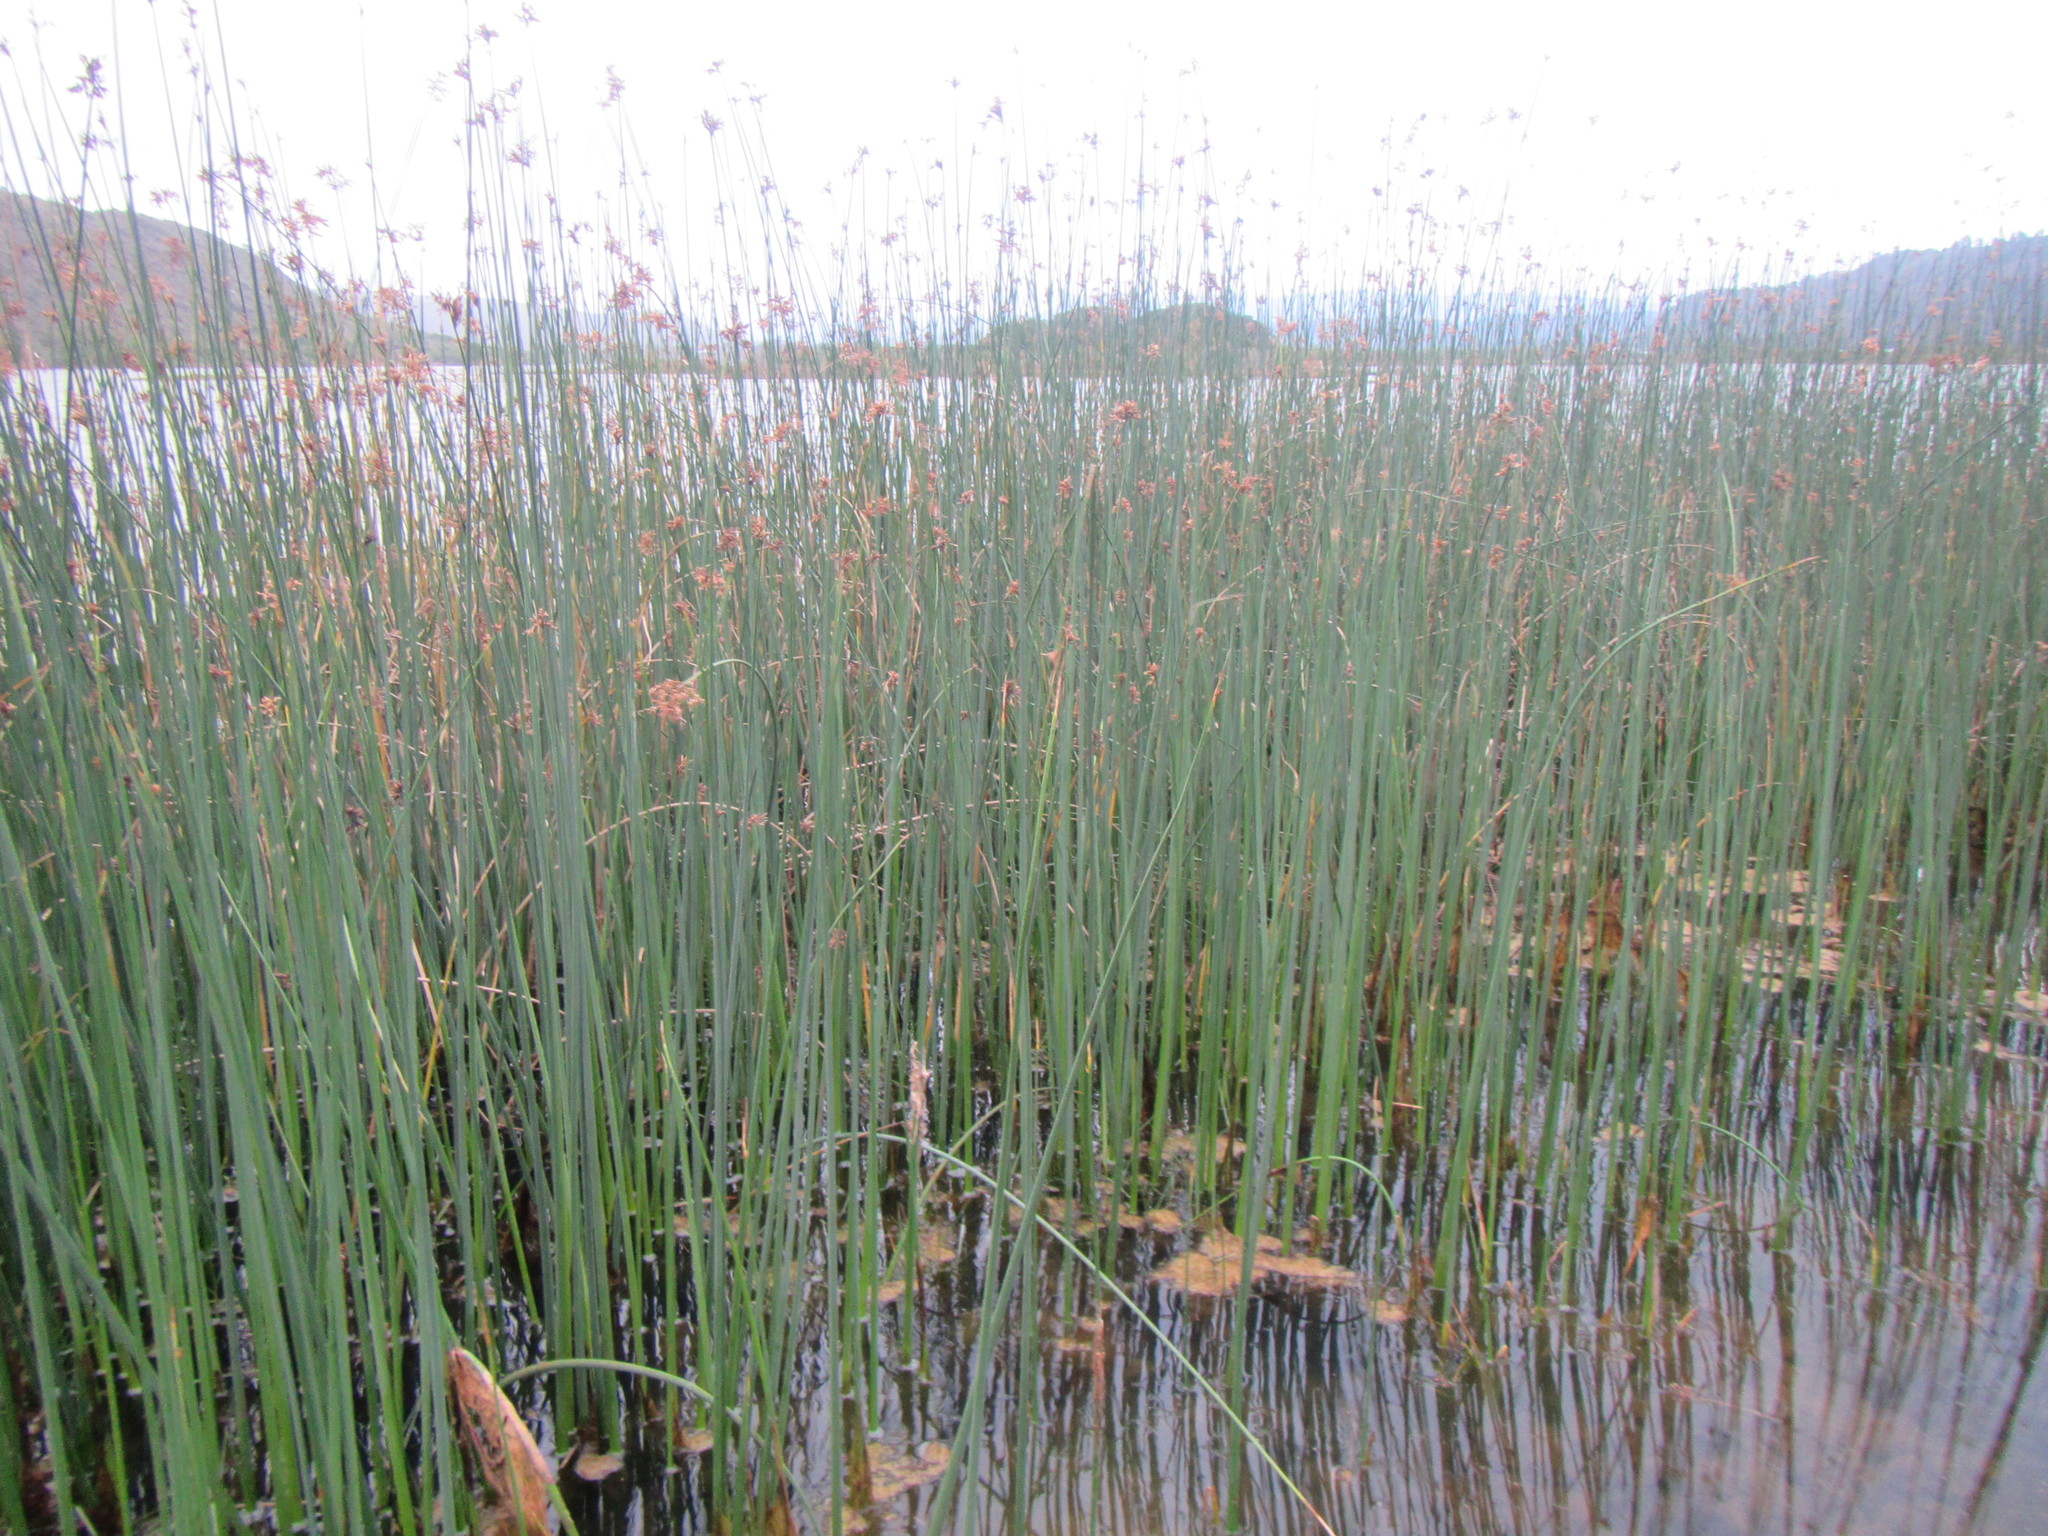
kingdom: Plantae
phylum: Tracheophyta
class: Liliopsida
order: Poales
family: Cyperaceae
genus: Schoenoplectus
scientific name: Schoenoplectus scirpoides
